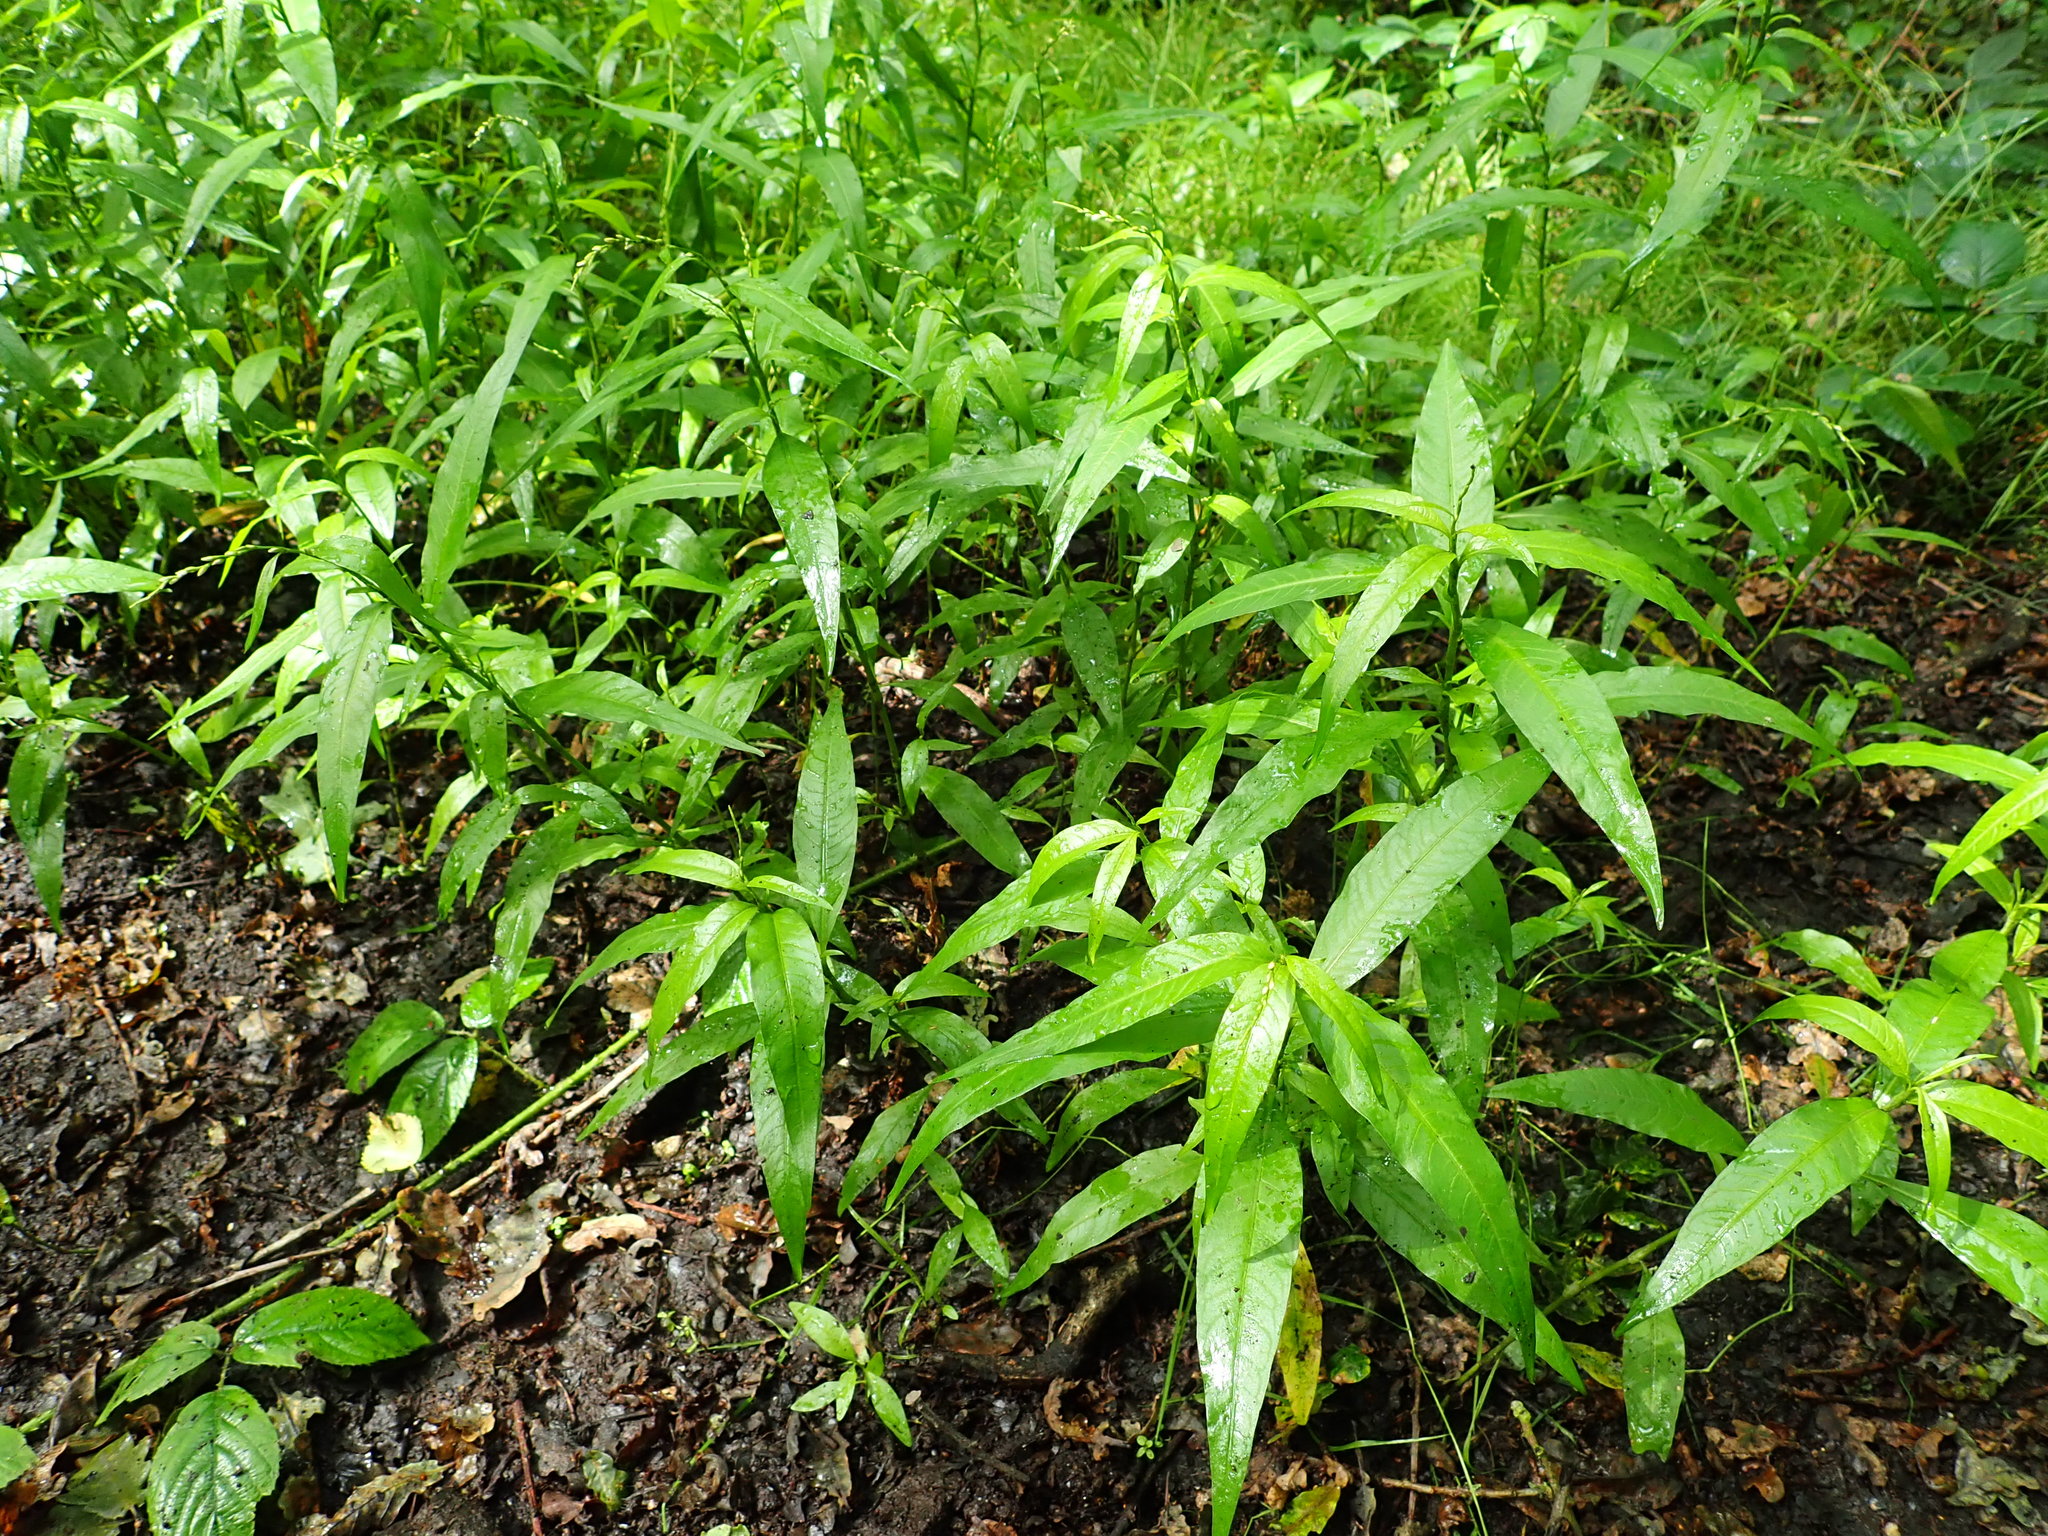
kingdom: Plantae
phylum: Tracheophyta
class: Magnoliopsida
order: Caryophyllales
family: Polygonaceae
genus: Persicaria
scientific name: Persicaria hydropiper
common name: Water-pepper
